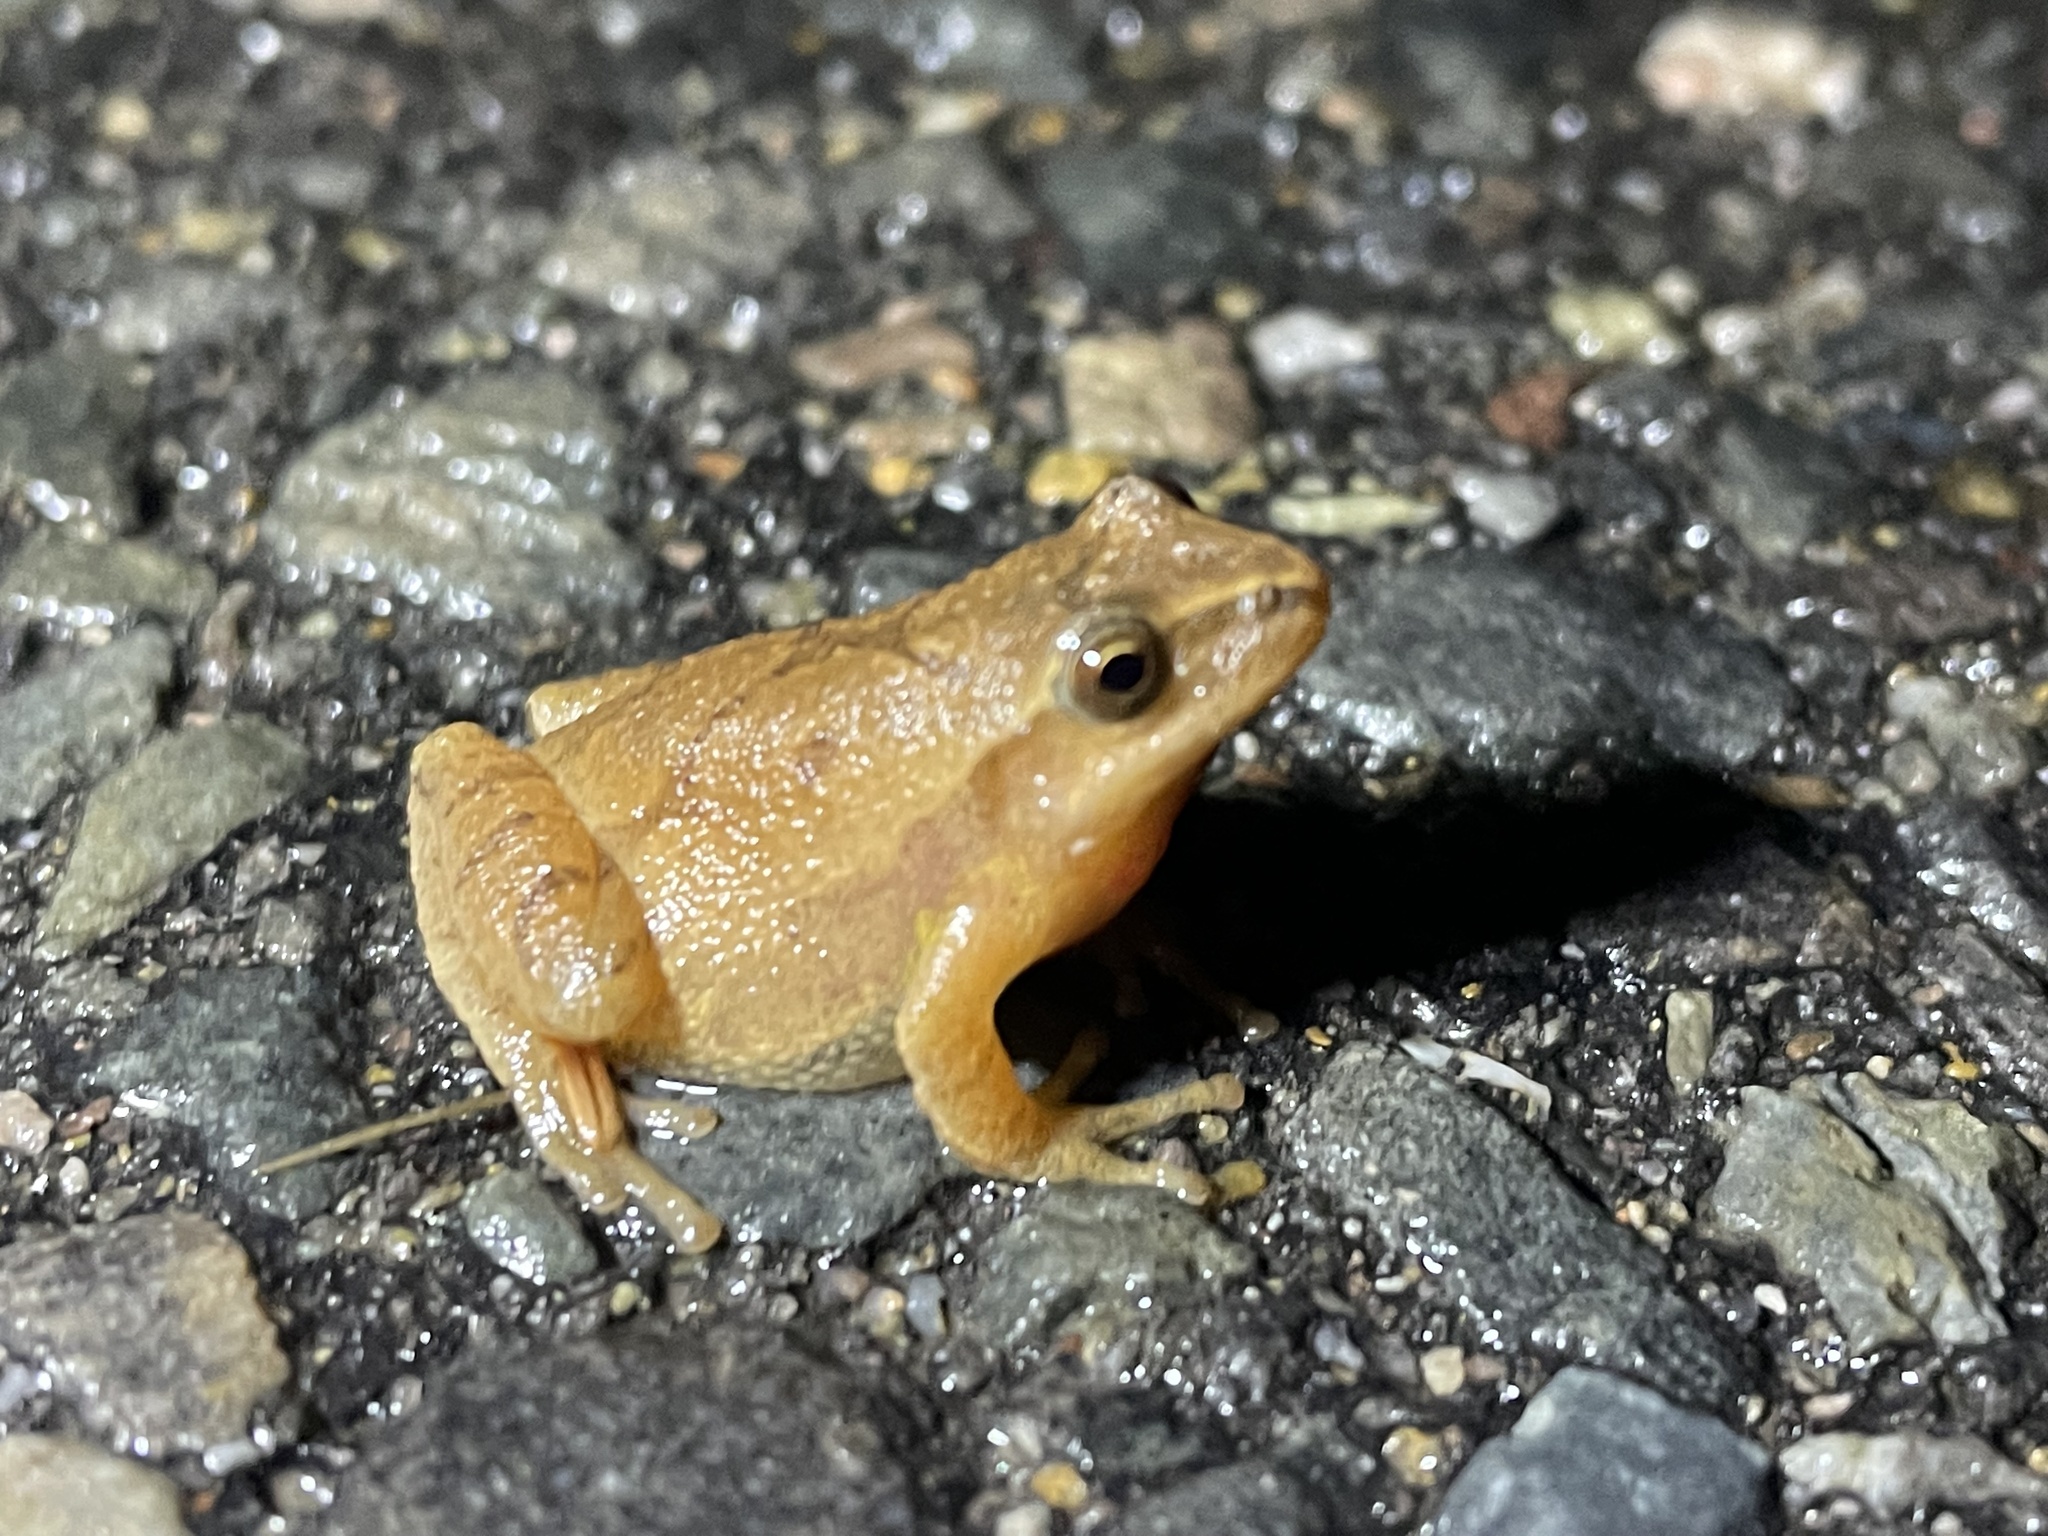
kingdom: Animalia
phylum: Chordata
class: Amphibia
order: Anura
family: Hylidae
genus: Pseudacris
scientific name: Pseudacris crucifer
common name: Spring peeper
